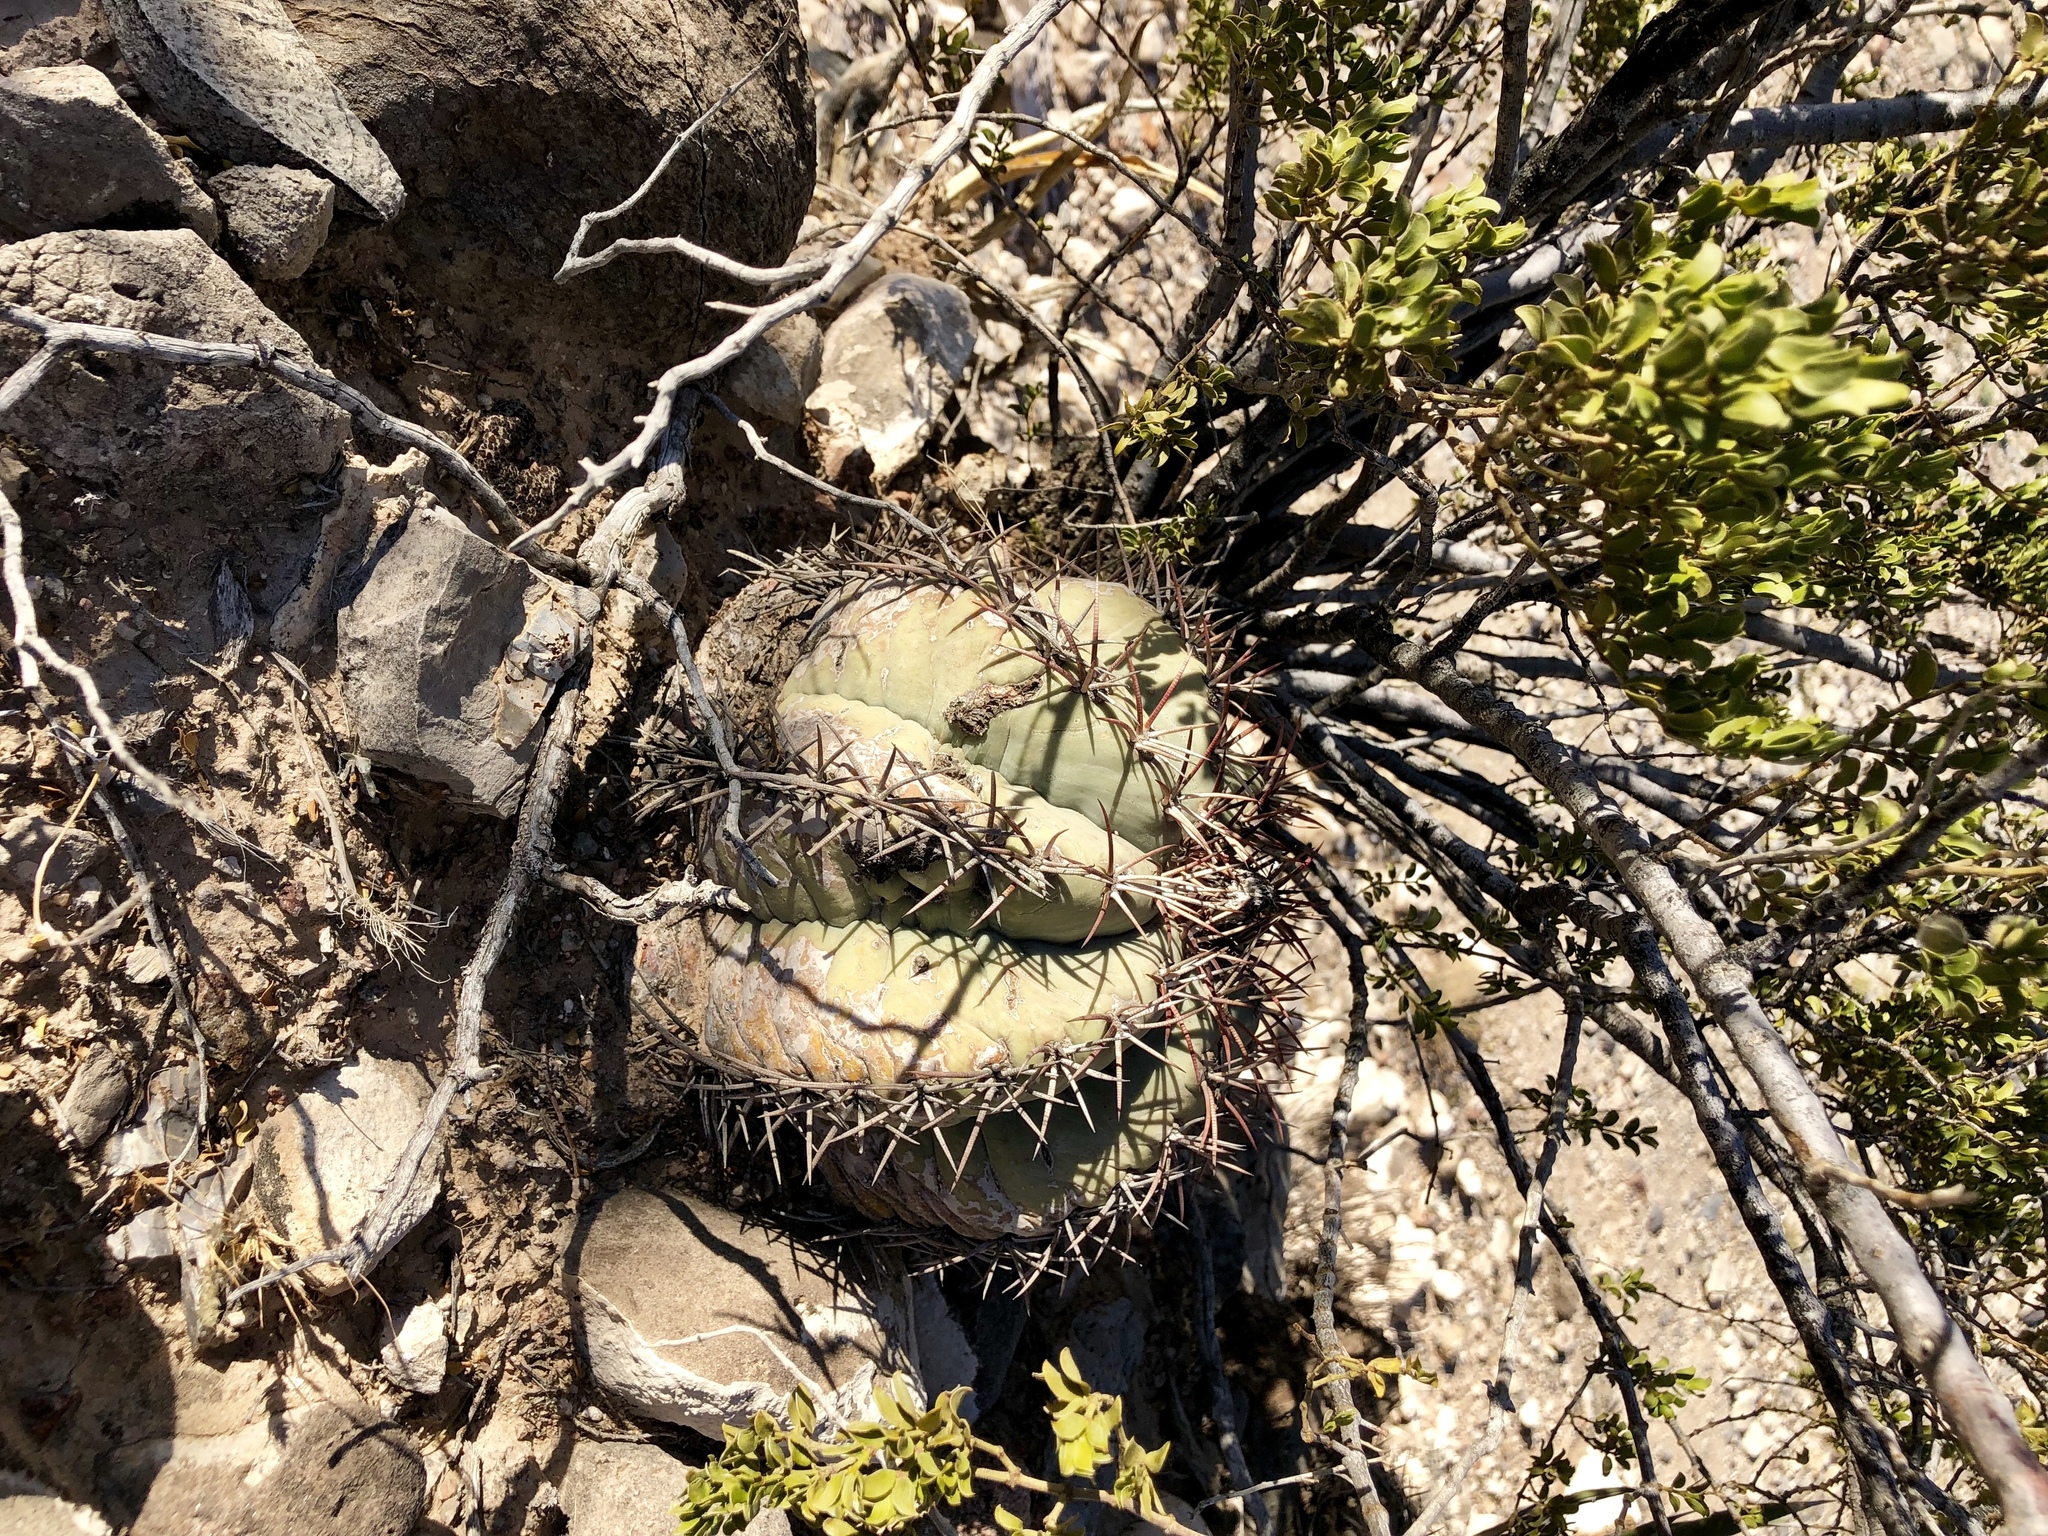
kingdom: Plantae
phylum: Tracheophyta
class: Magnoliopsida
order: Caryophyllales
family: Cactaceae
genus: Echinocactus
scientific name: Echinocactus horizonthalonius
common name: Devilshead
